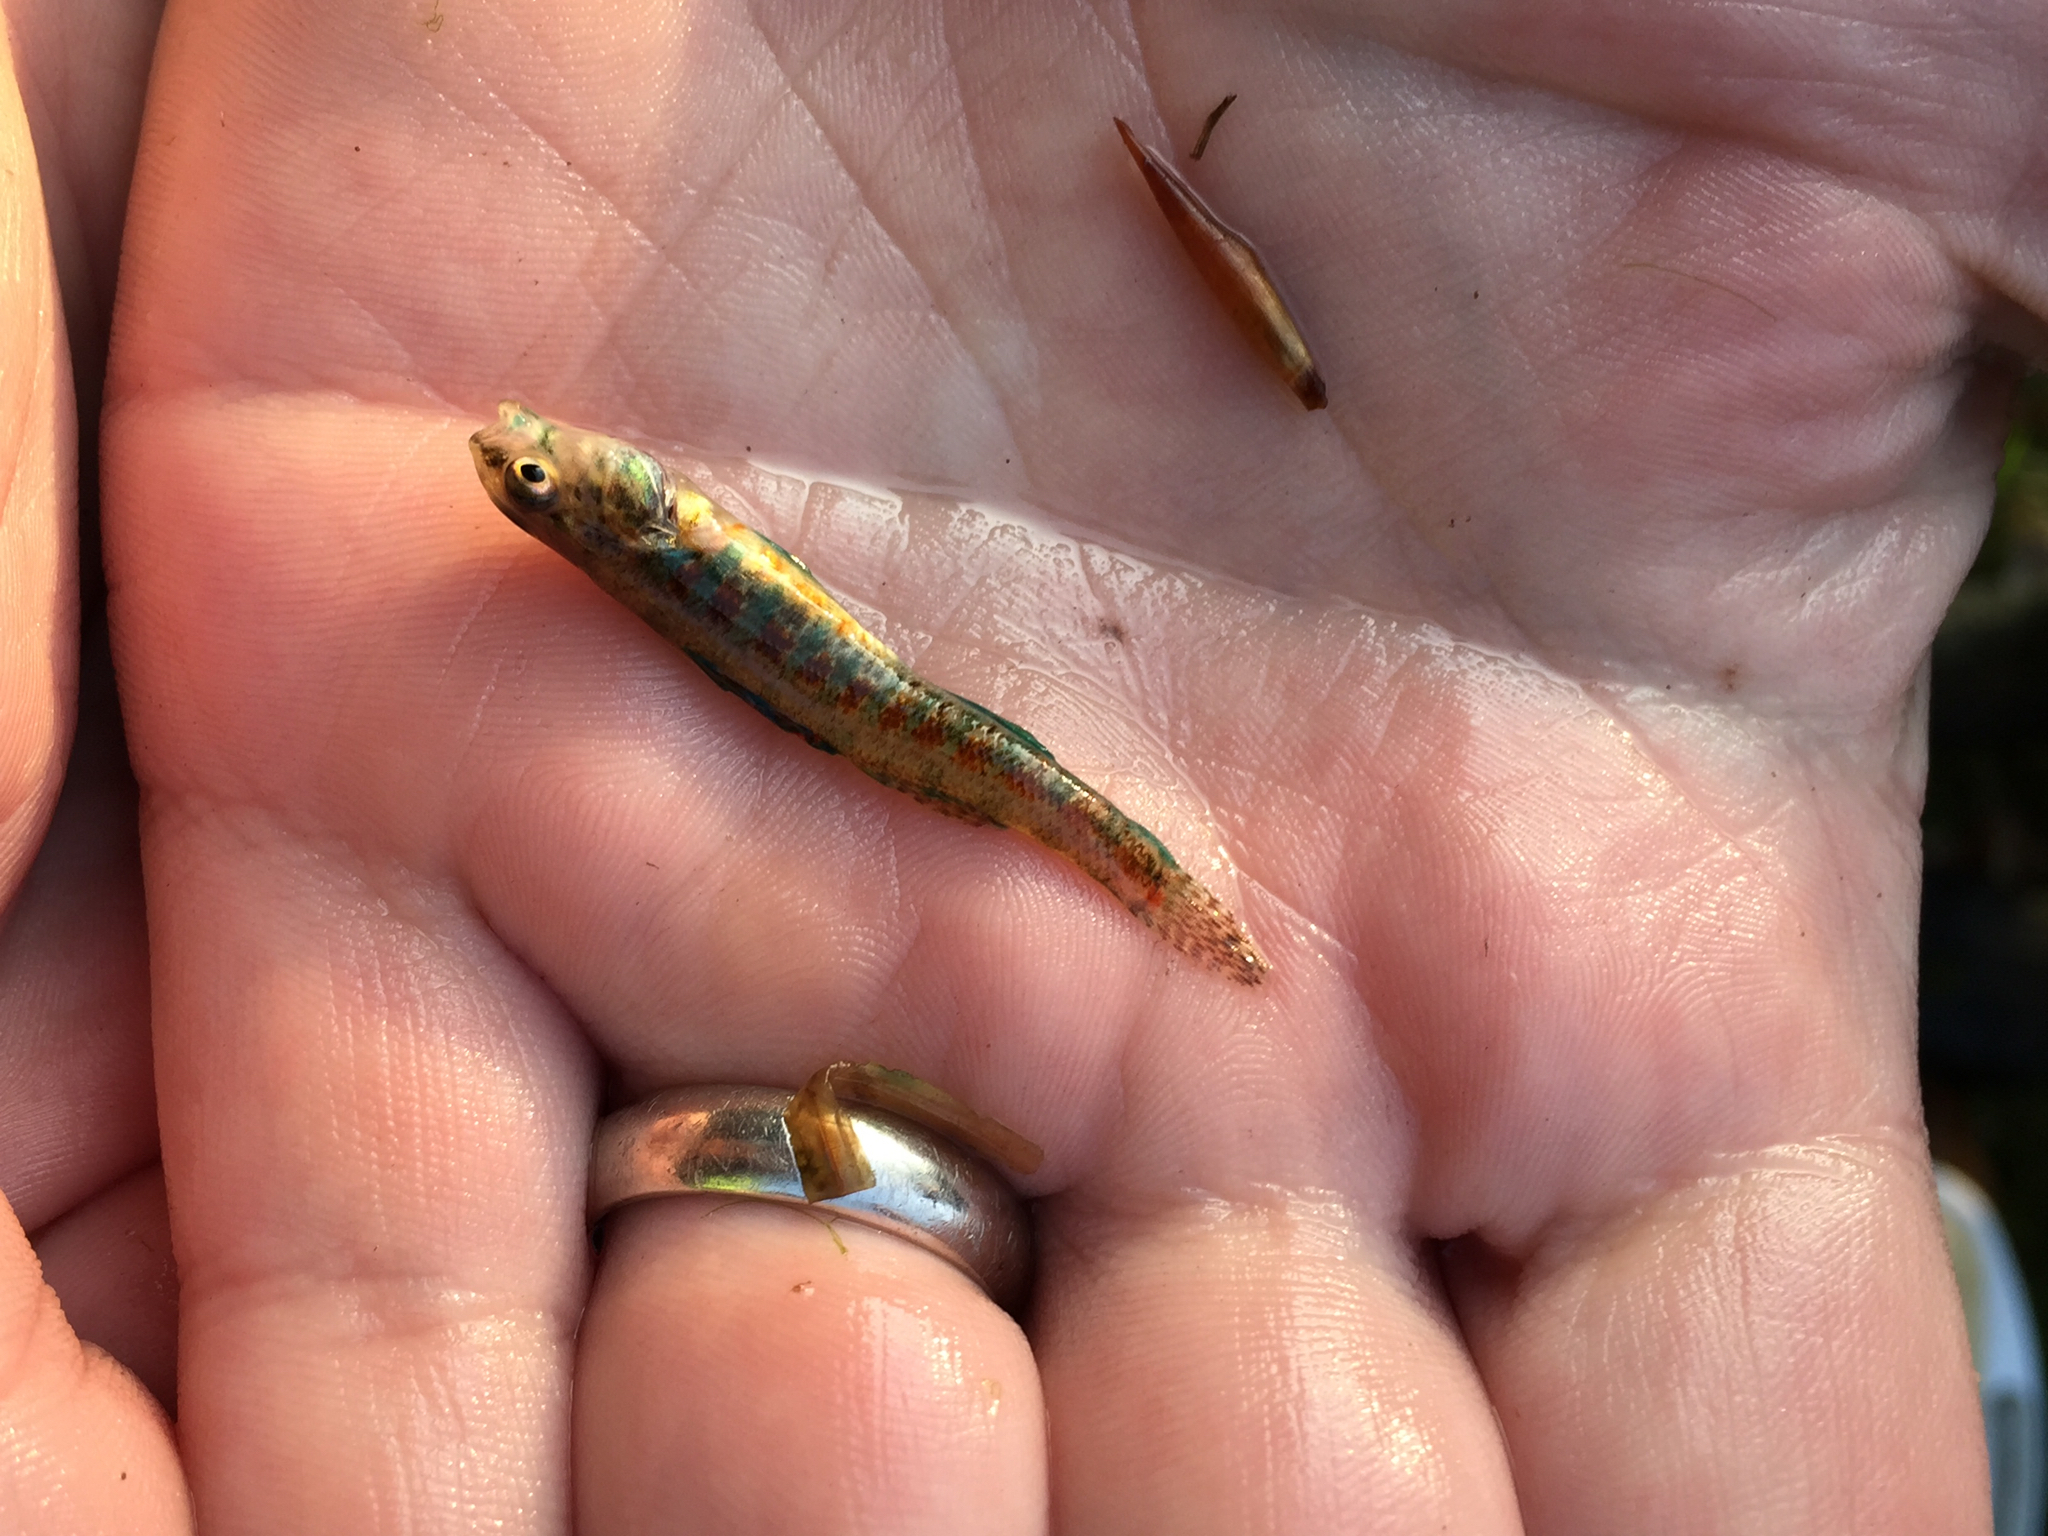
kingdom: Animalia
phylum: Chordata
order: Perciformes
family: Percidae
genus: Etheostoma
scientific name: Etheostoma exile
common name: Iowa darter
